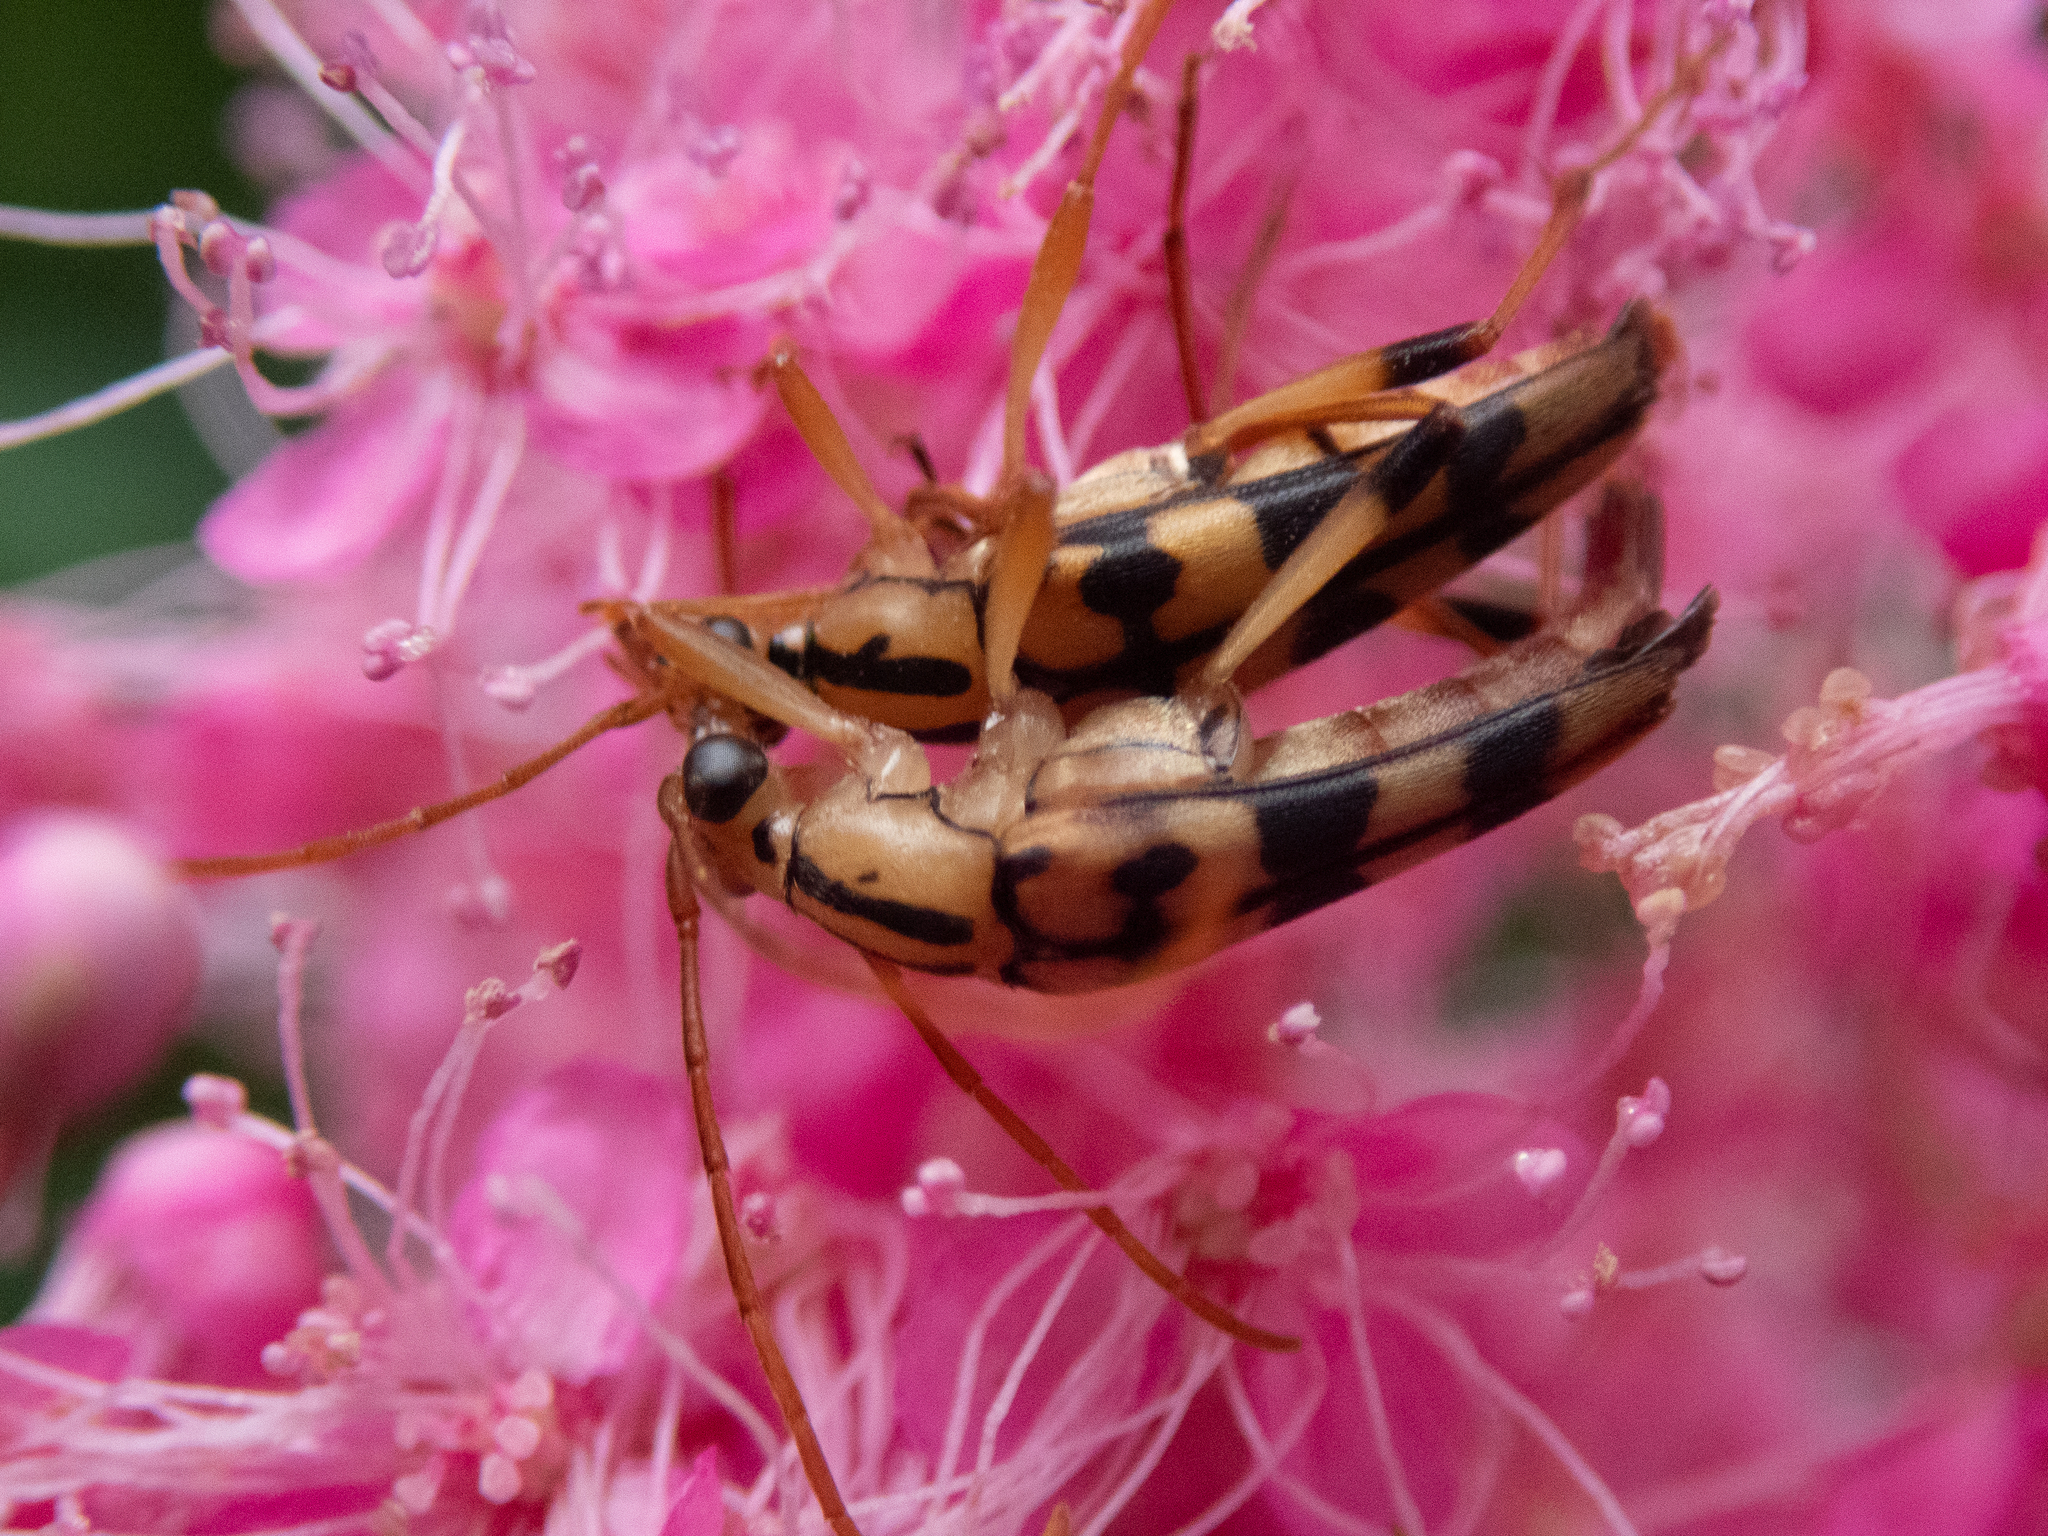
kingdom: Animalia
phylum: Arthropoda
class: Insecta
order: Coleoptera
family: Cerambycidae
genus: Strangalia
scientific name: Strangalia luteicornis
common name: Yellow-horned flower longhorn beetle
